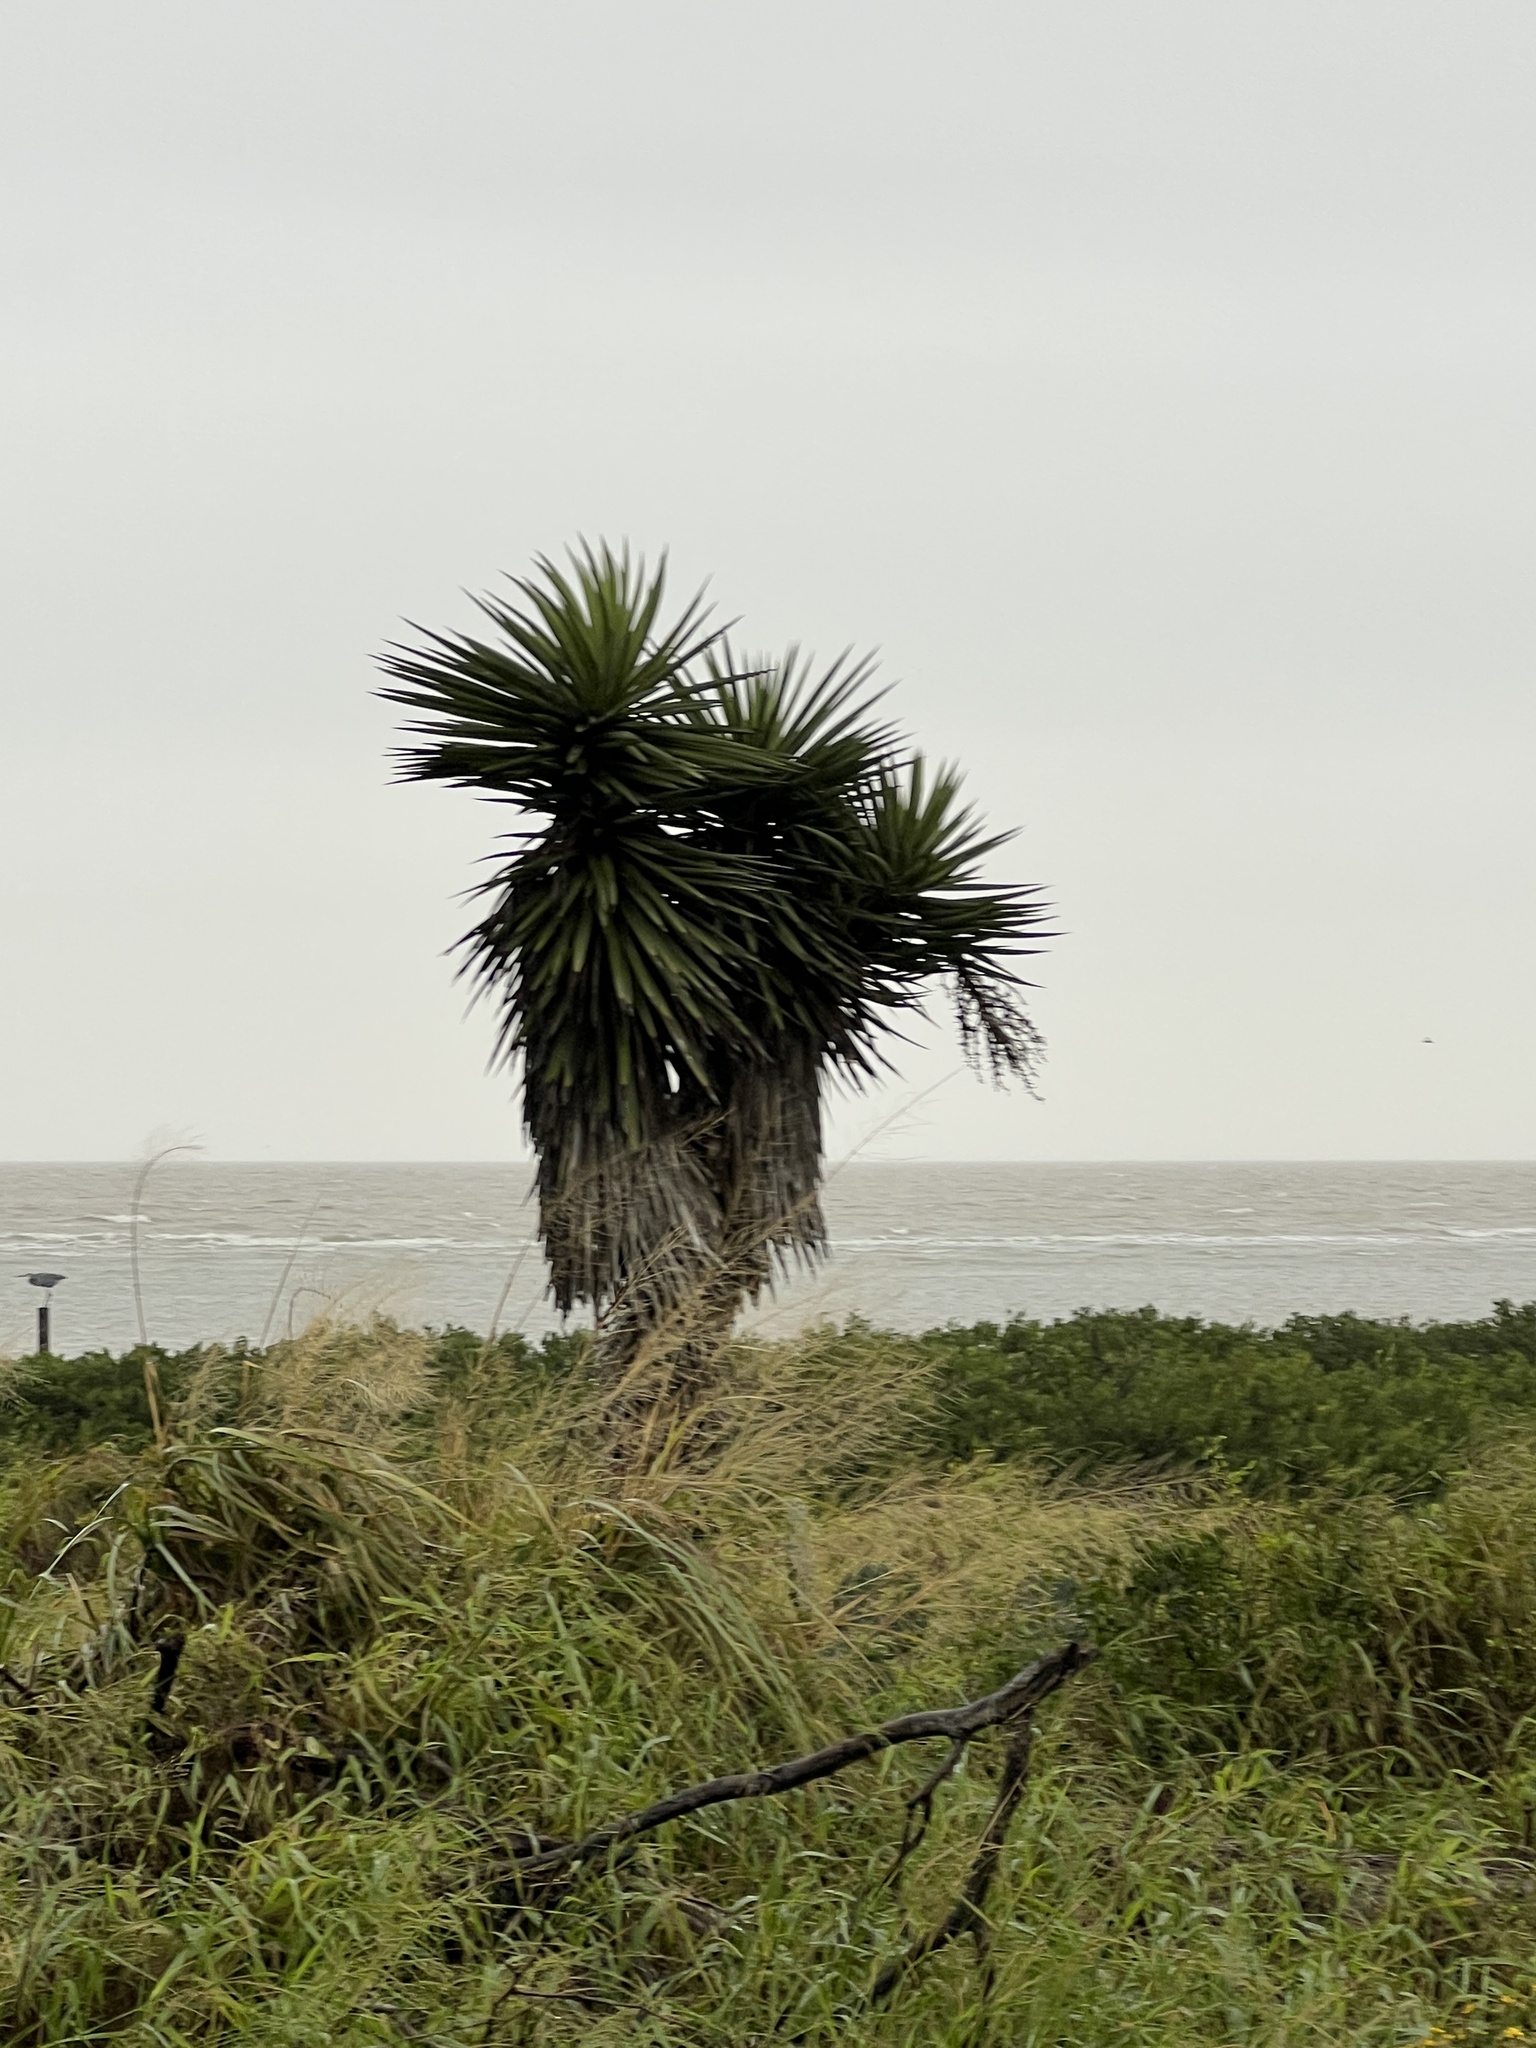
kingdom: Plantae
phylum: Tracheophyta
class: Liliopsida
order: Asparagales
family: Asparagaceae
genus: Yucca
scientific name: Yucca treculiana
